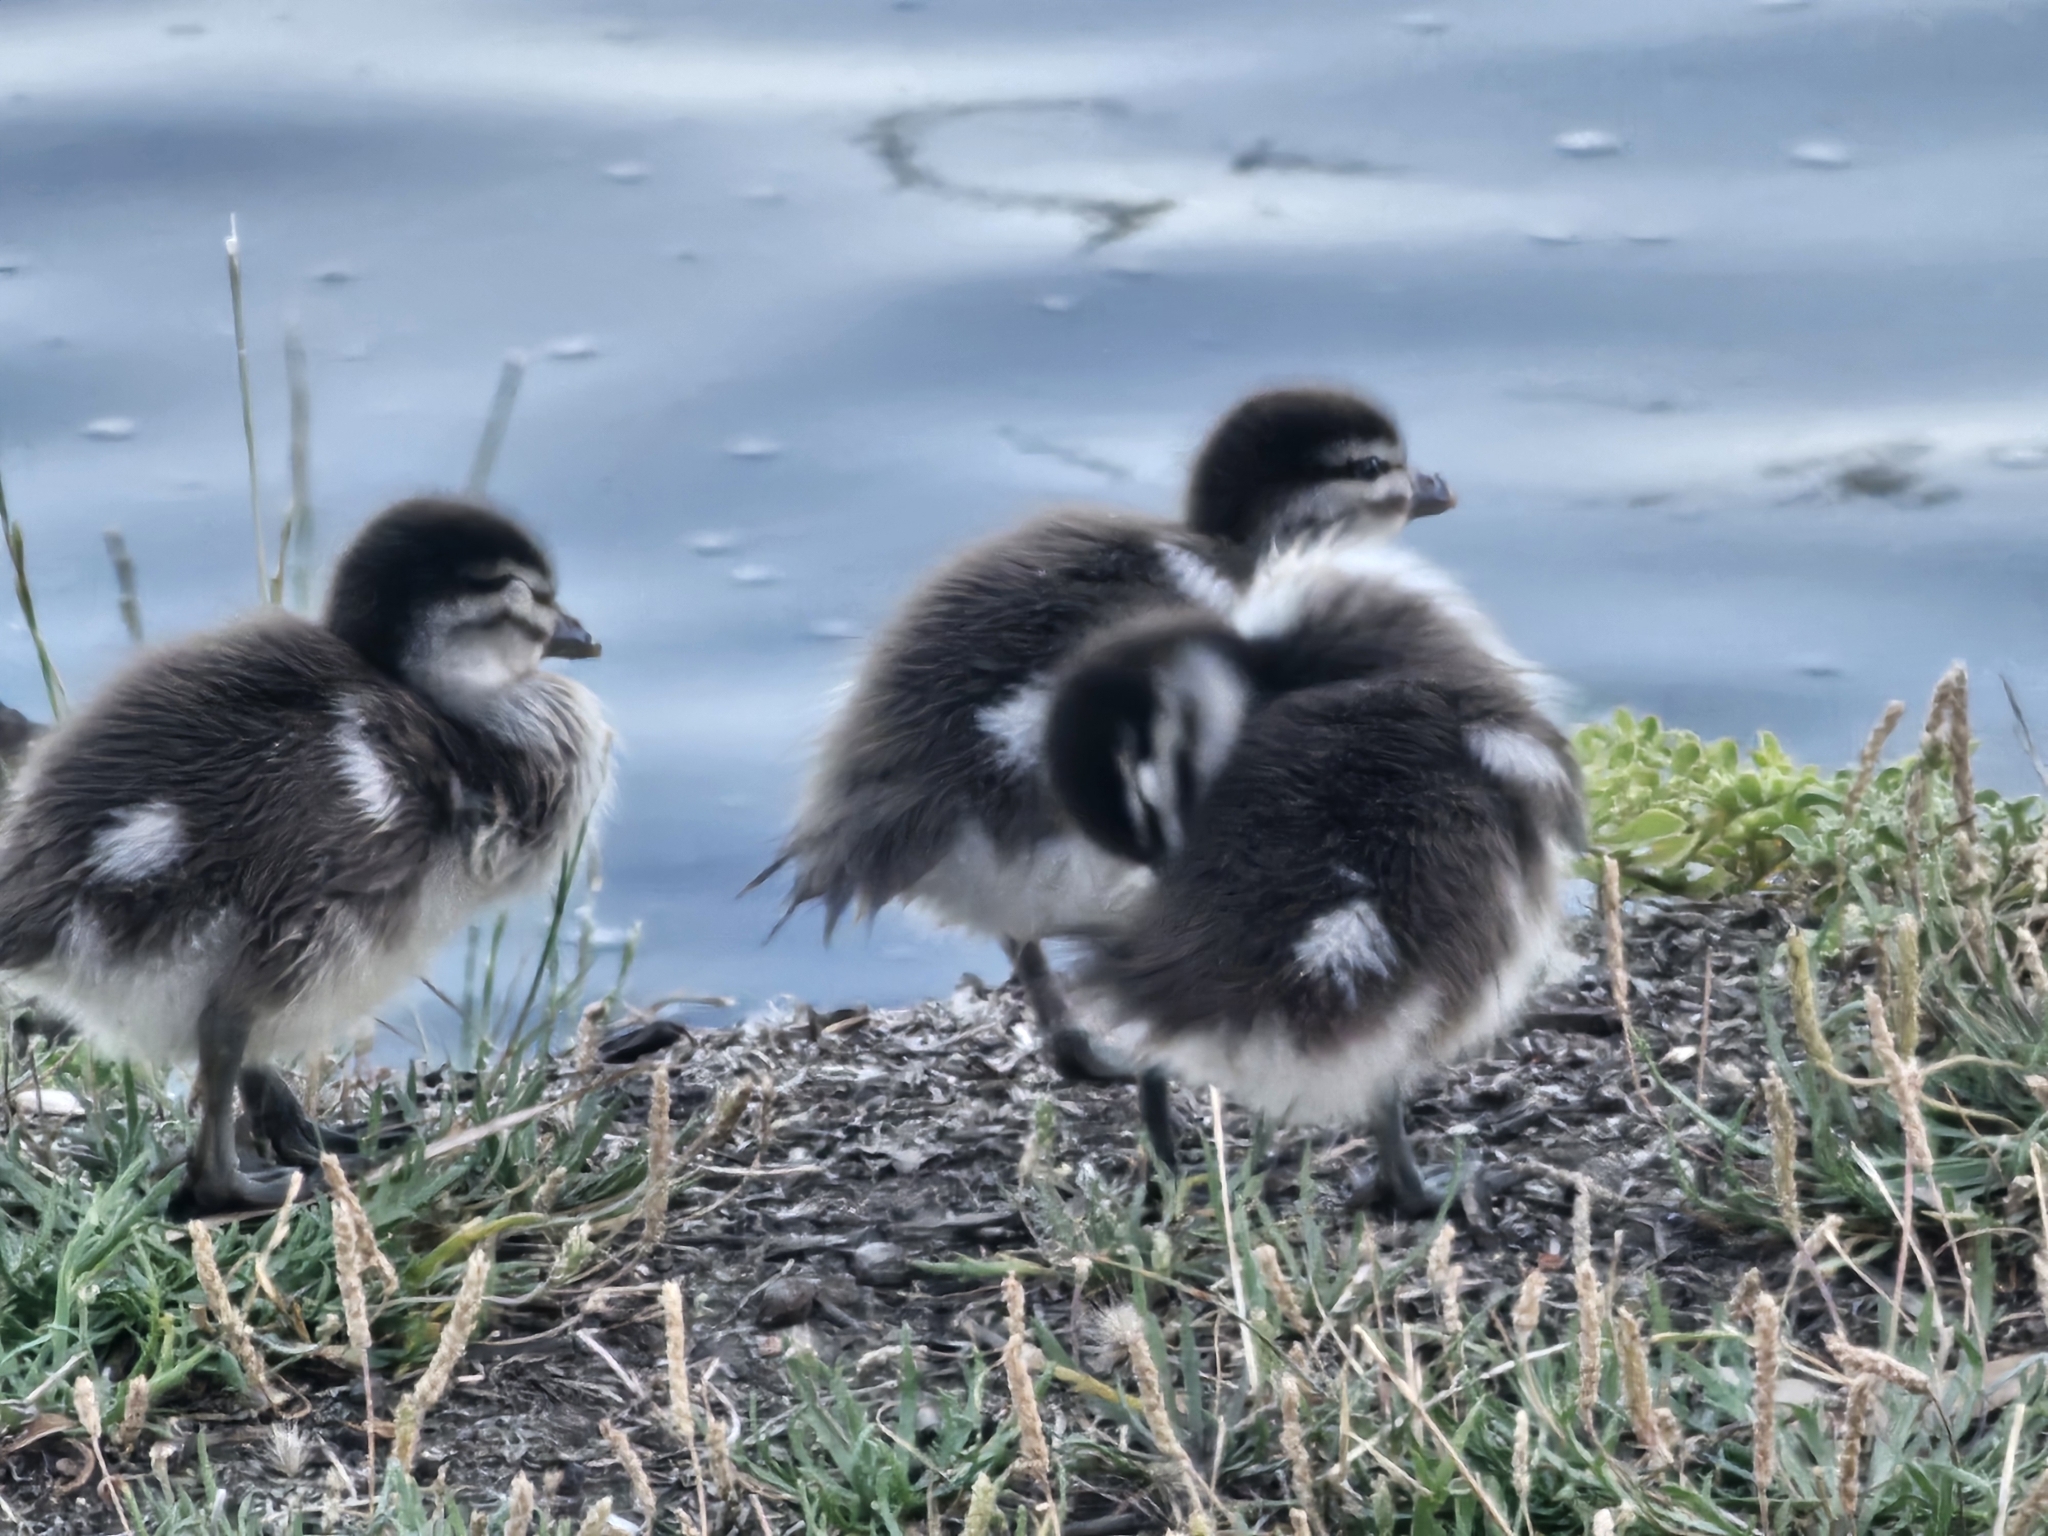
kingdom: Animalia
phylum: Chordata
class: Aves
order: Anseriformes
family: Anatidae
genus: Chenonetta
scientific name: Chenonetta jubata
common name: Maned duck
